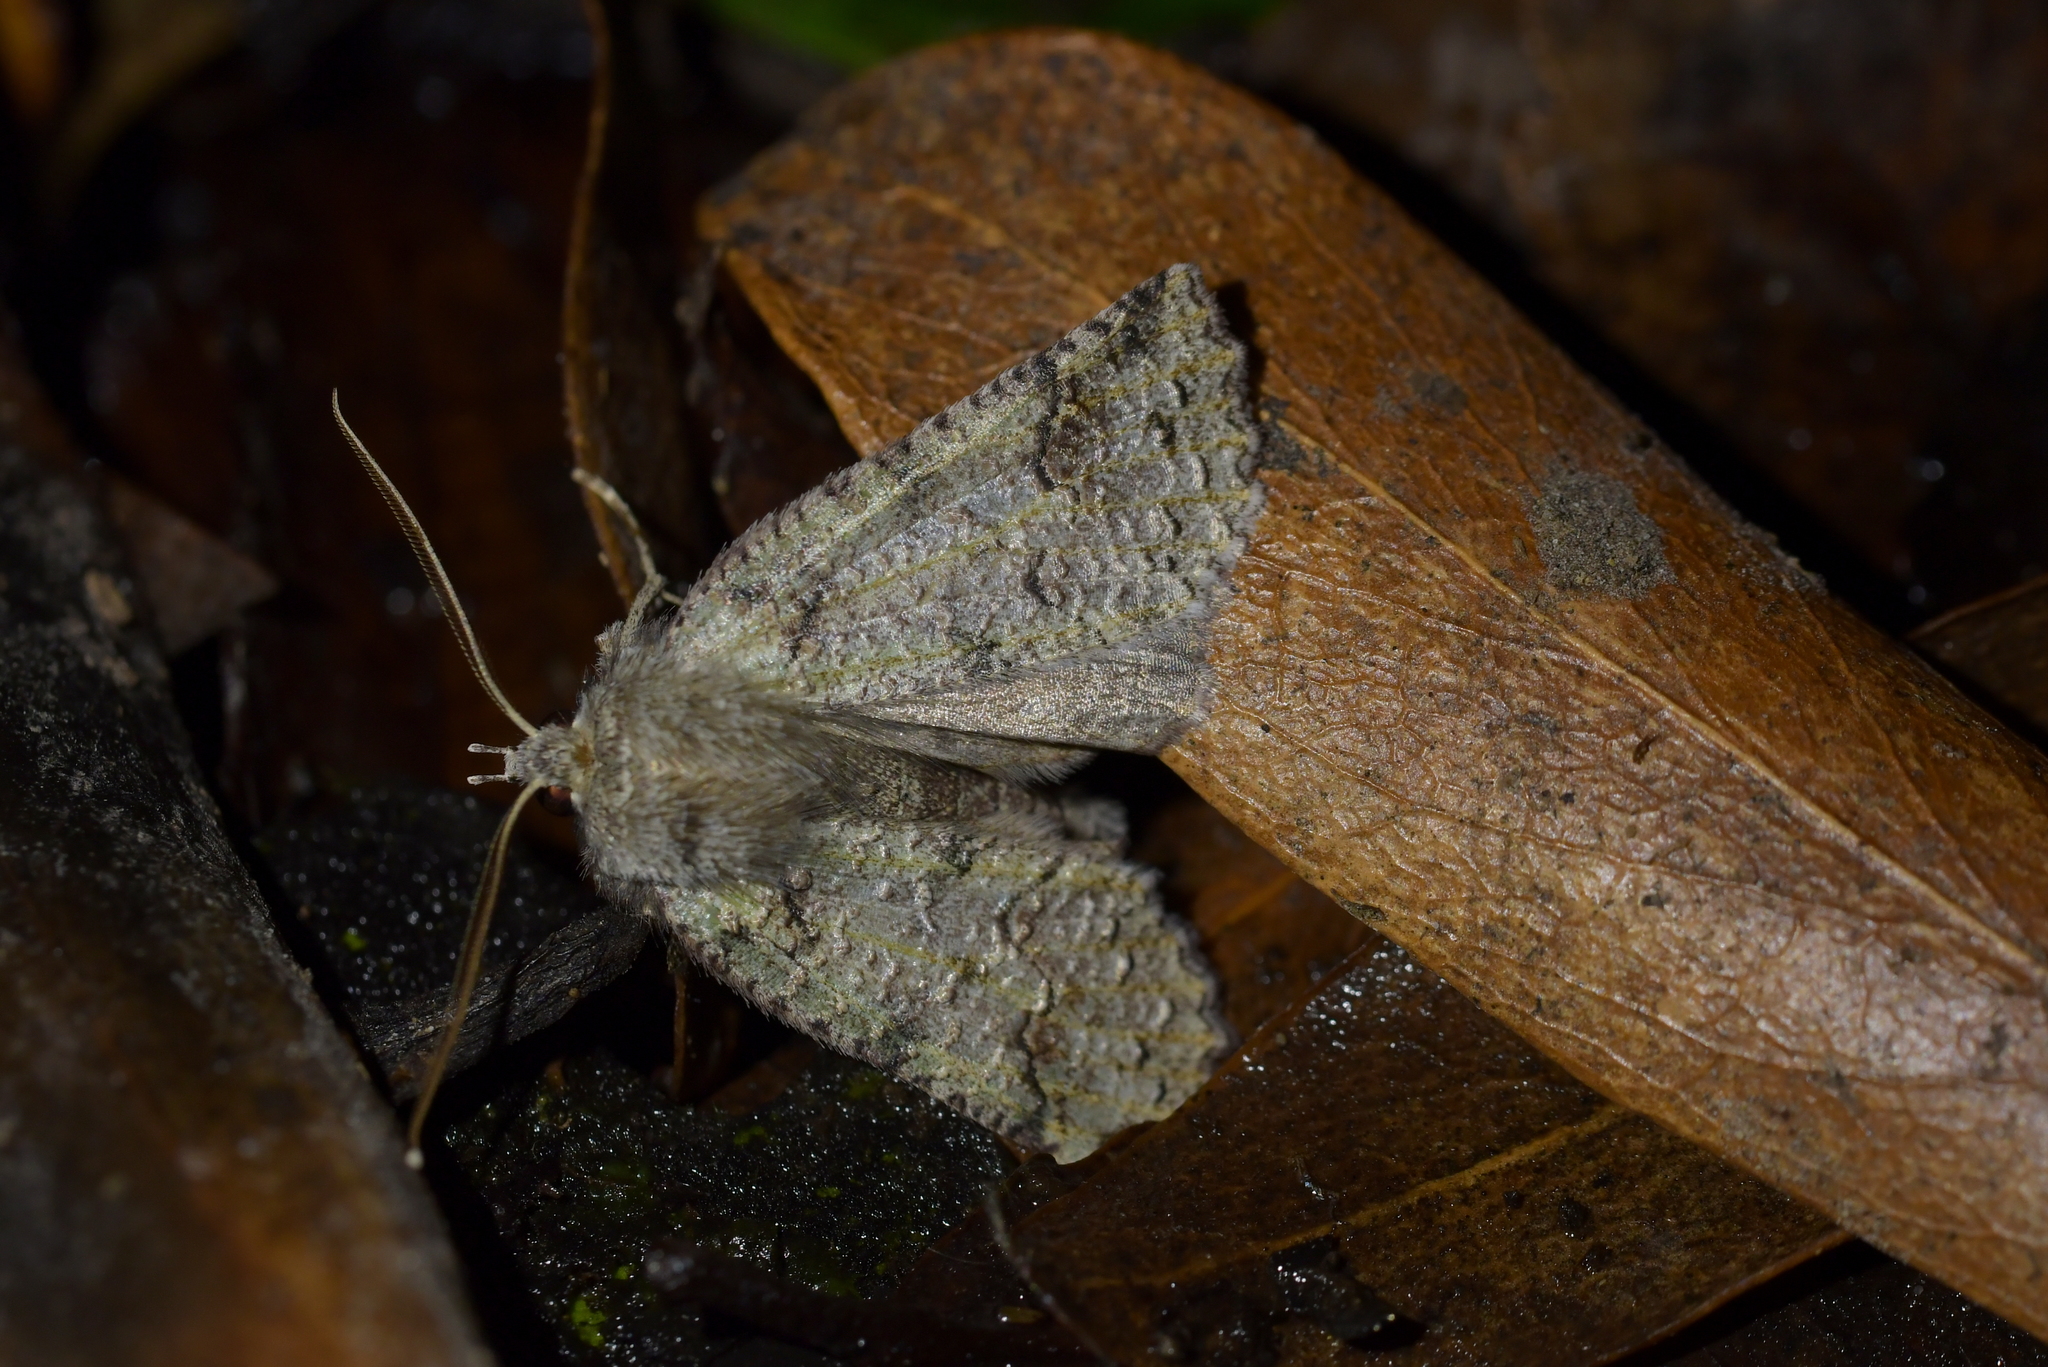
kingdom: Animalia
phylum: Arthropoda
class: Insecta
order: Lepidoptera
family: Geometridae
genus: Declana
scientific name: Declana floccosa
